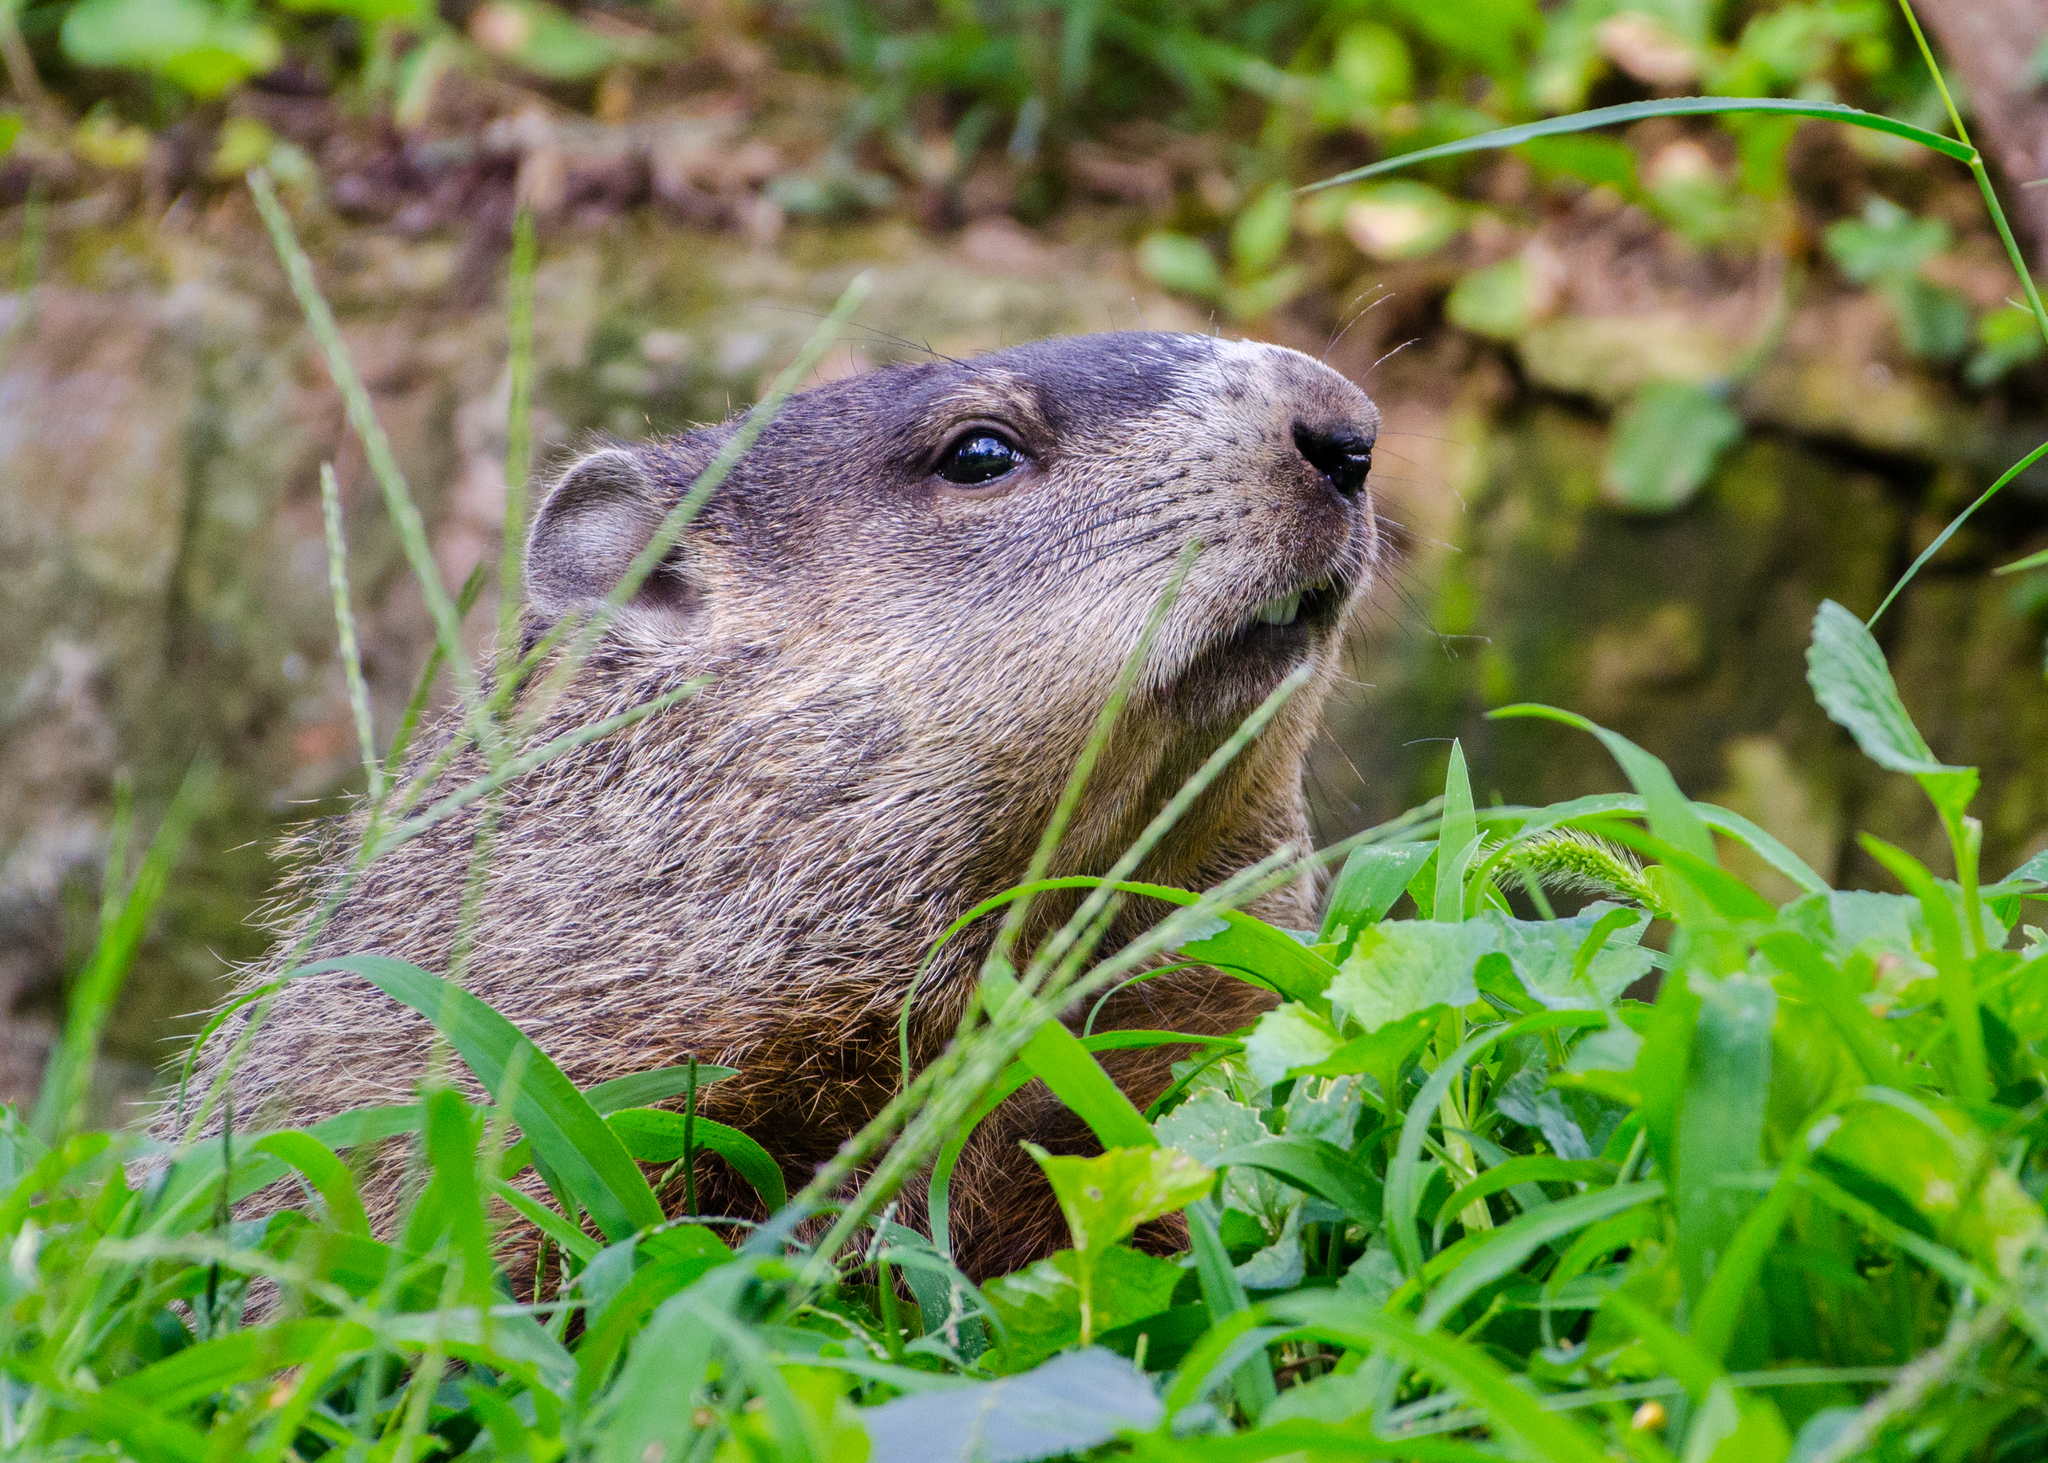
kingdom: Animalia
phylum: Chordata
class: Mammalia
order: Rodentia
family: Sciuridae
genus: Marmota
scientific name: Marmota monax
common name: Groundhog
